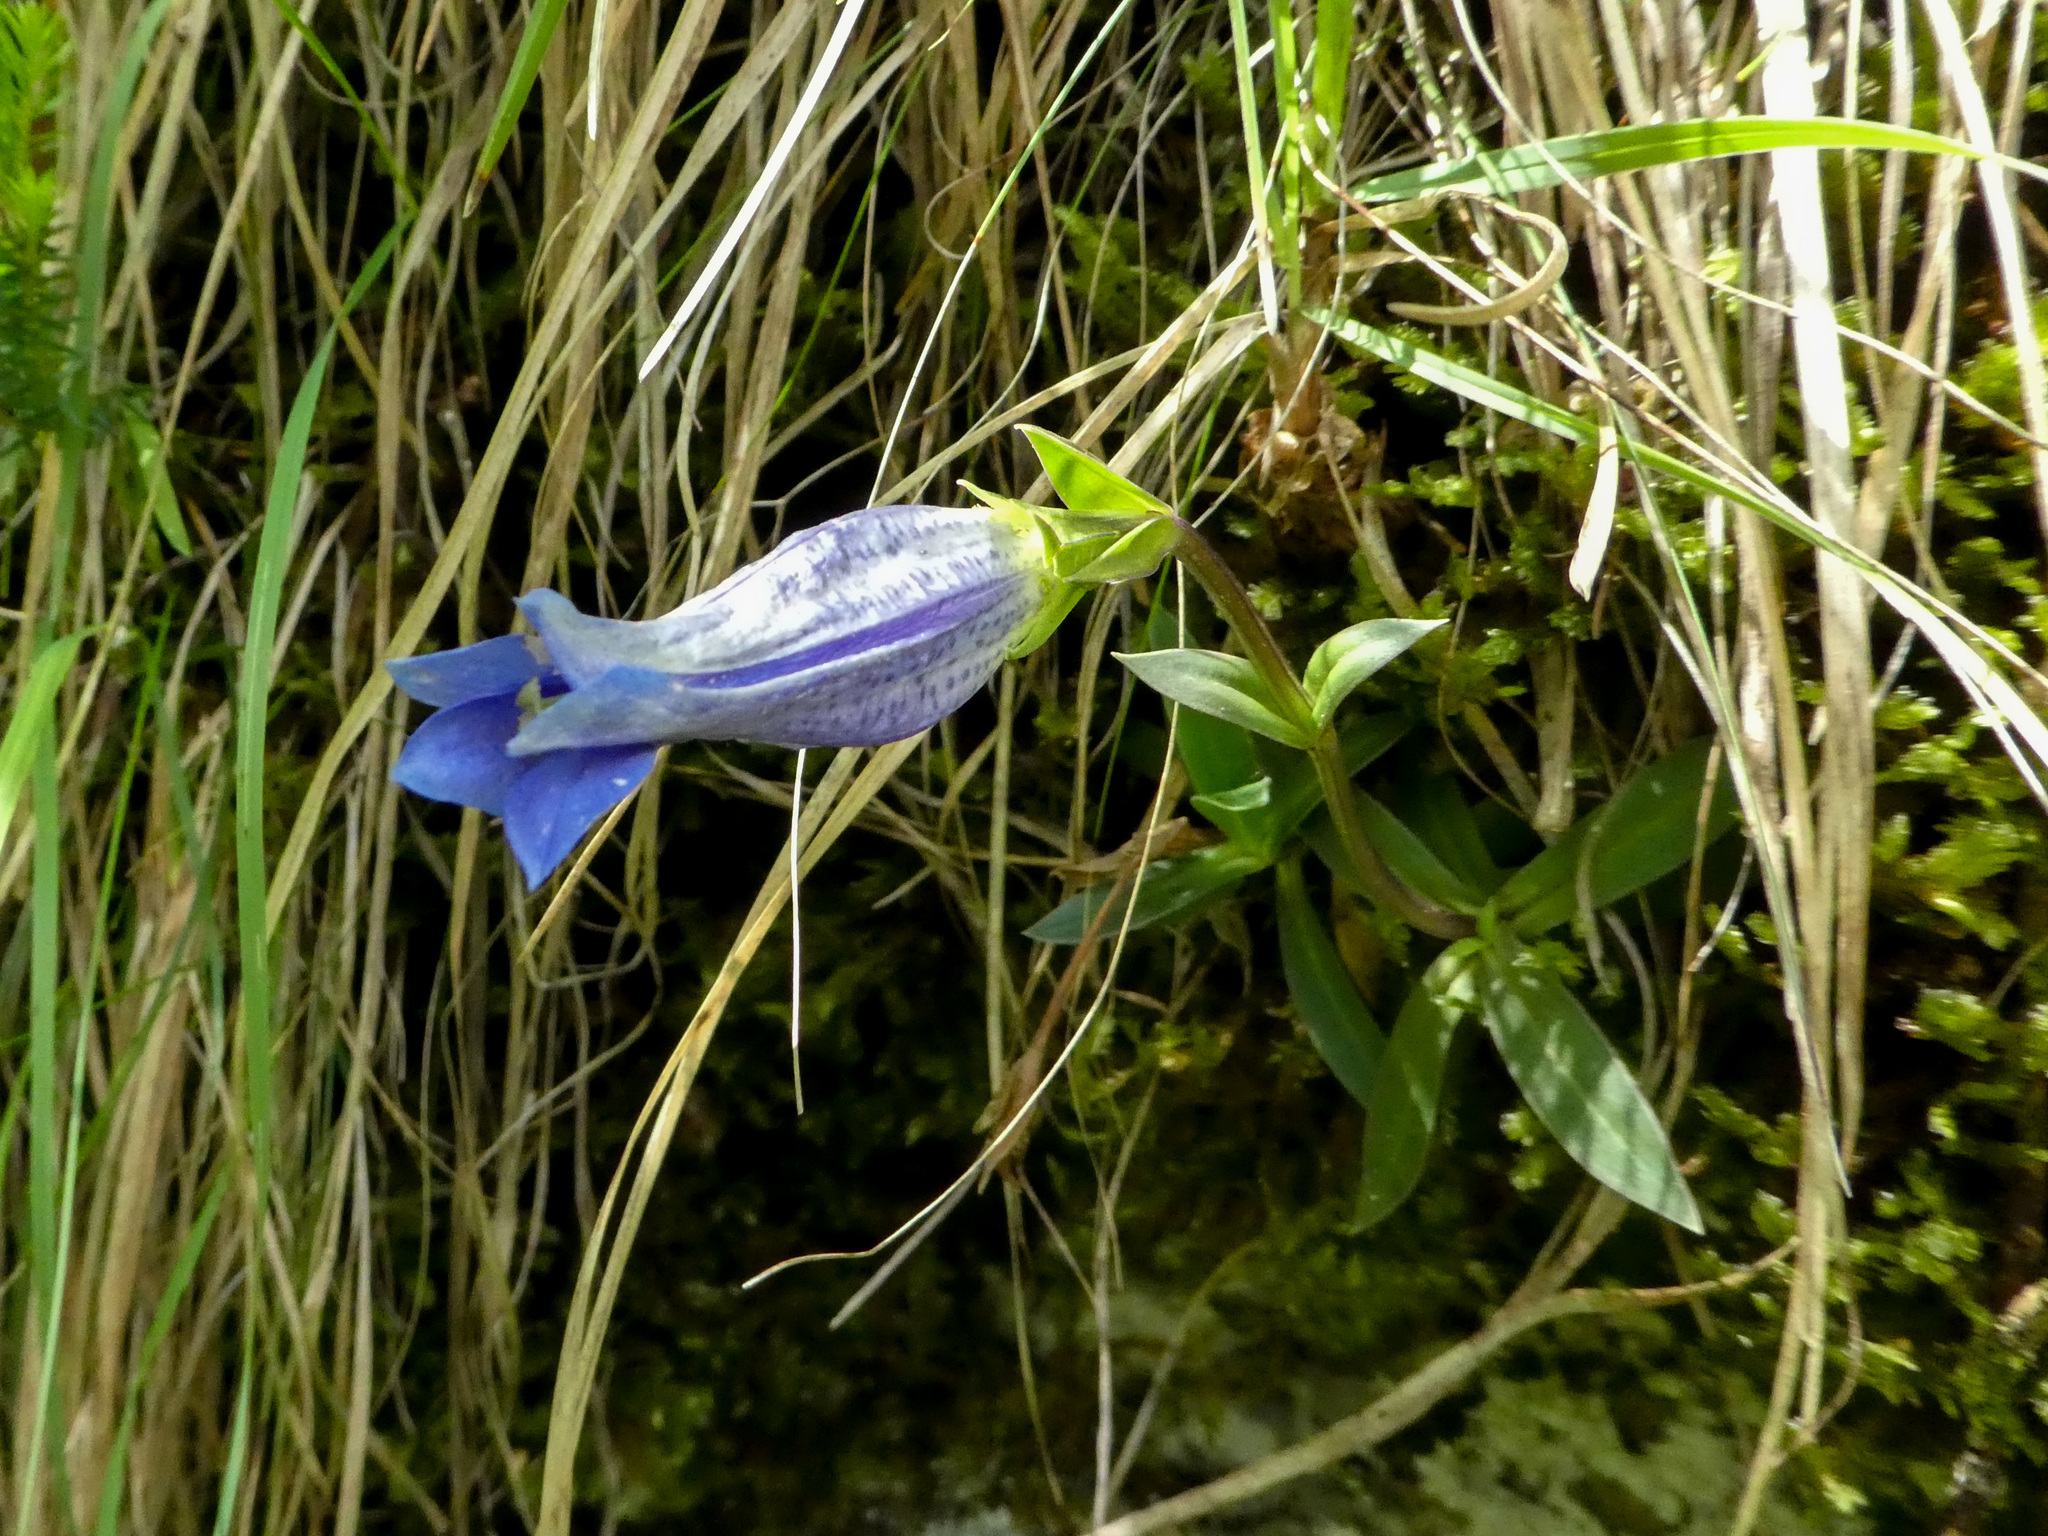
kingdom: Plantae
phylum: Tracheophyta
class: Magnoliopsida
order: Gentianales
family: Gentianaceae
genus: Gentiana
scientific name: Gentiana clusii
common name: Trumpet gentian
